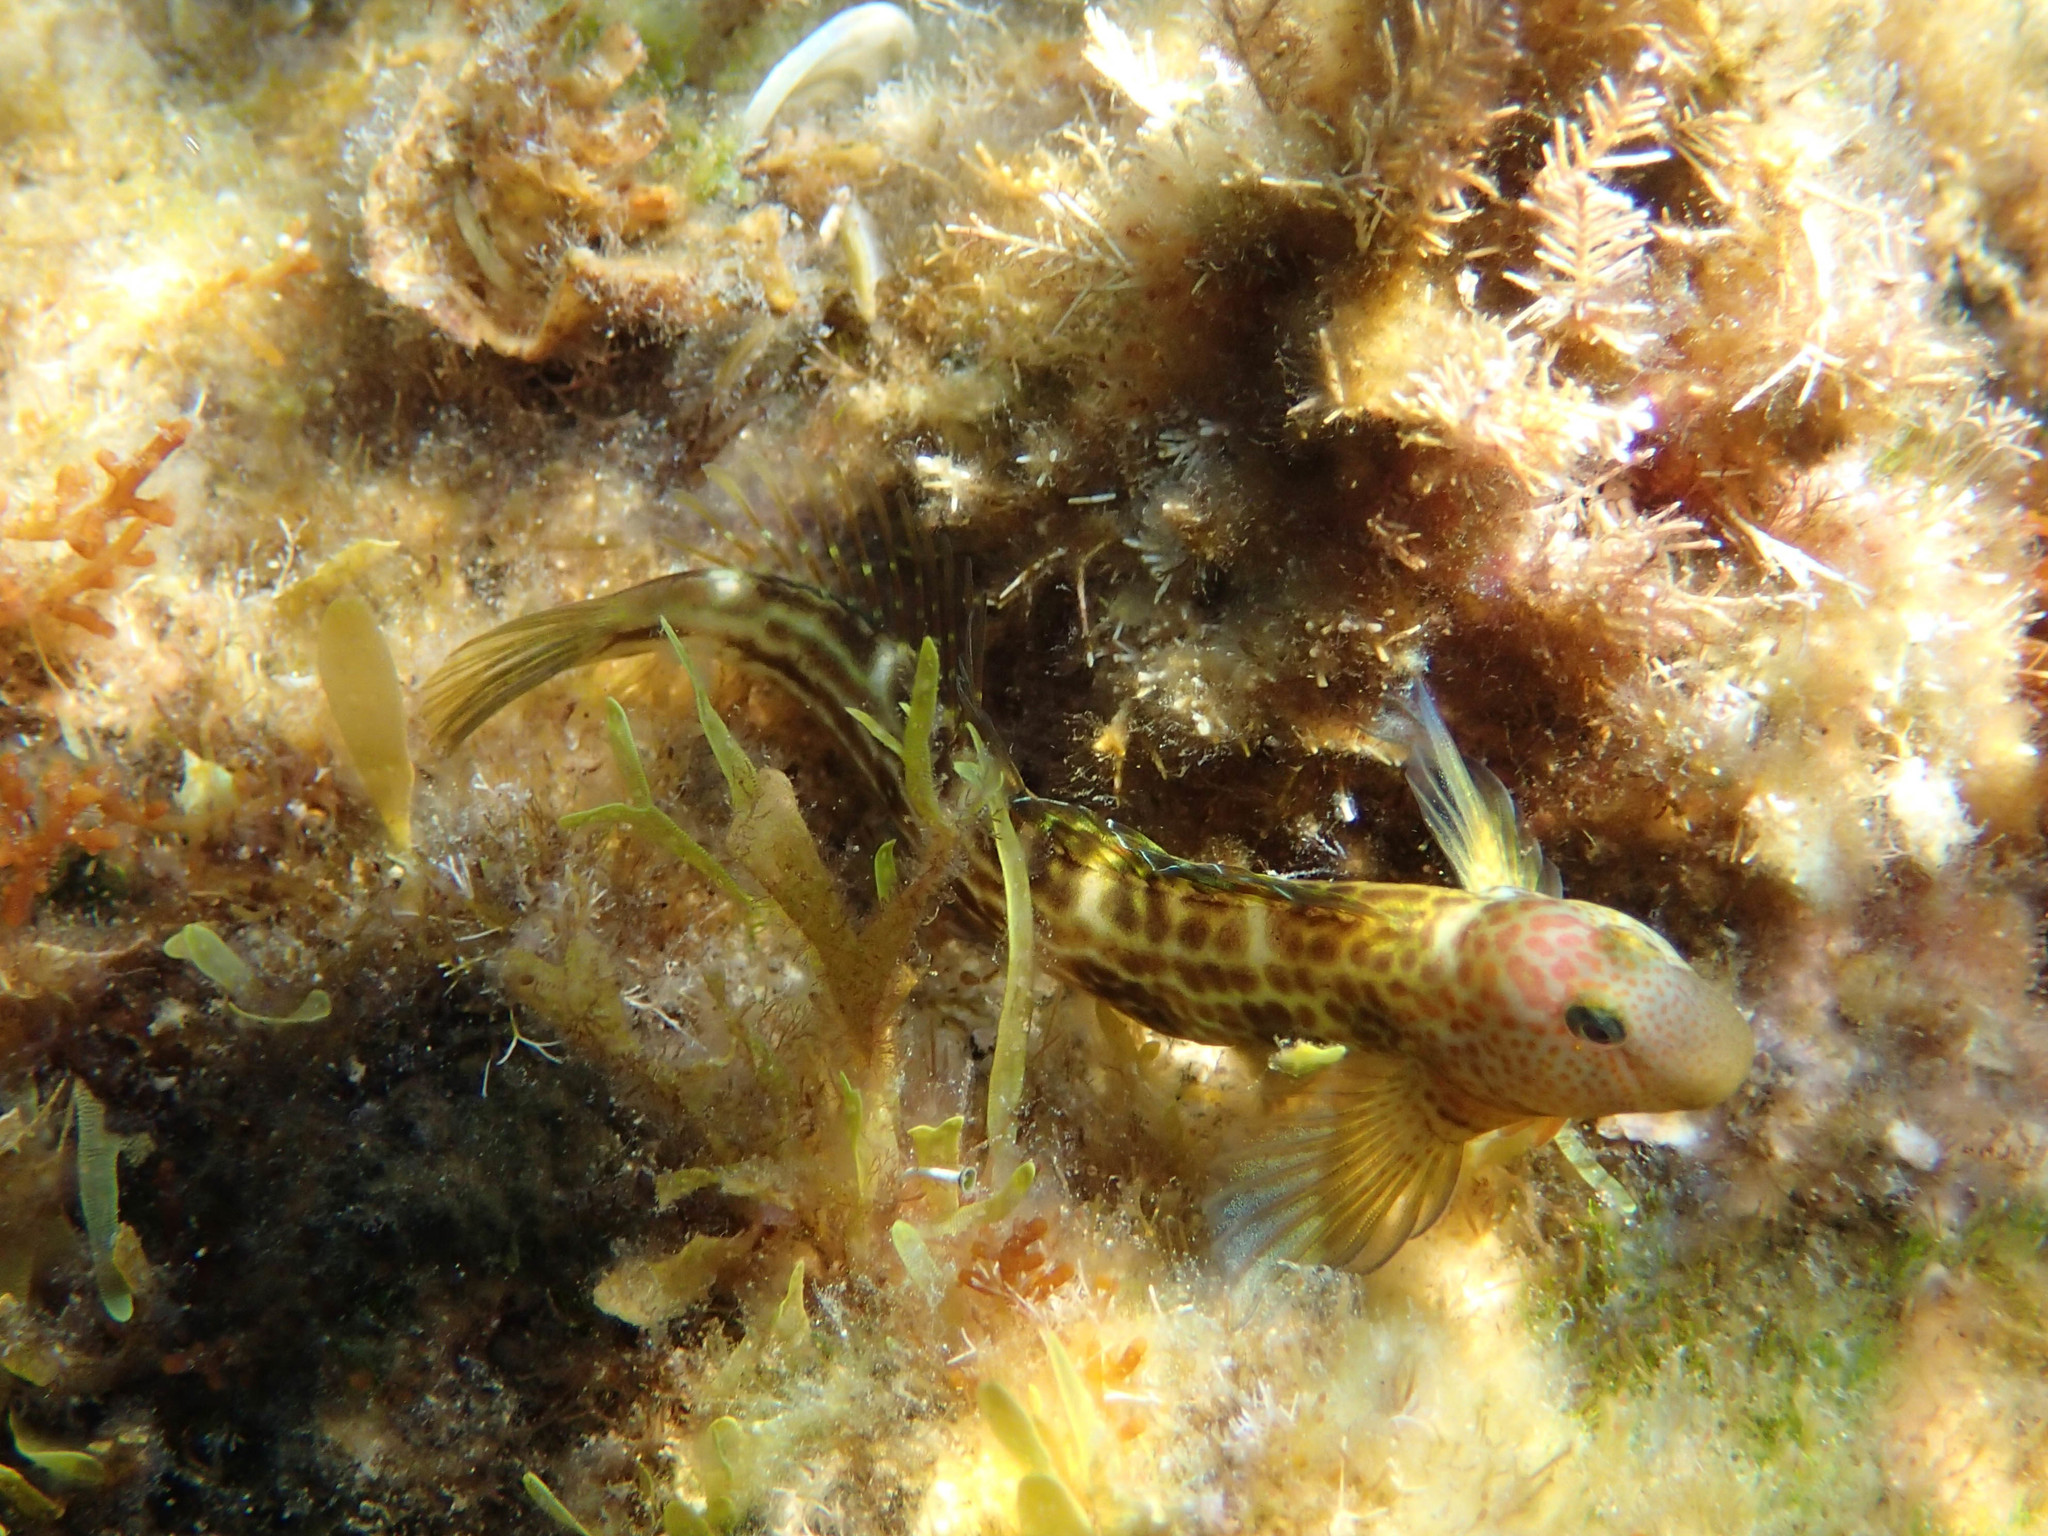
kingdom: Animalia
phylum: Chordata
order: Perciformes
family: Blenniidae
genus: Microlipophrys
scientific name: Microlipophrys canevae
